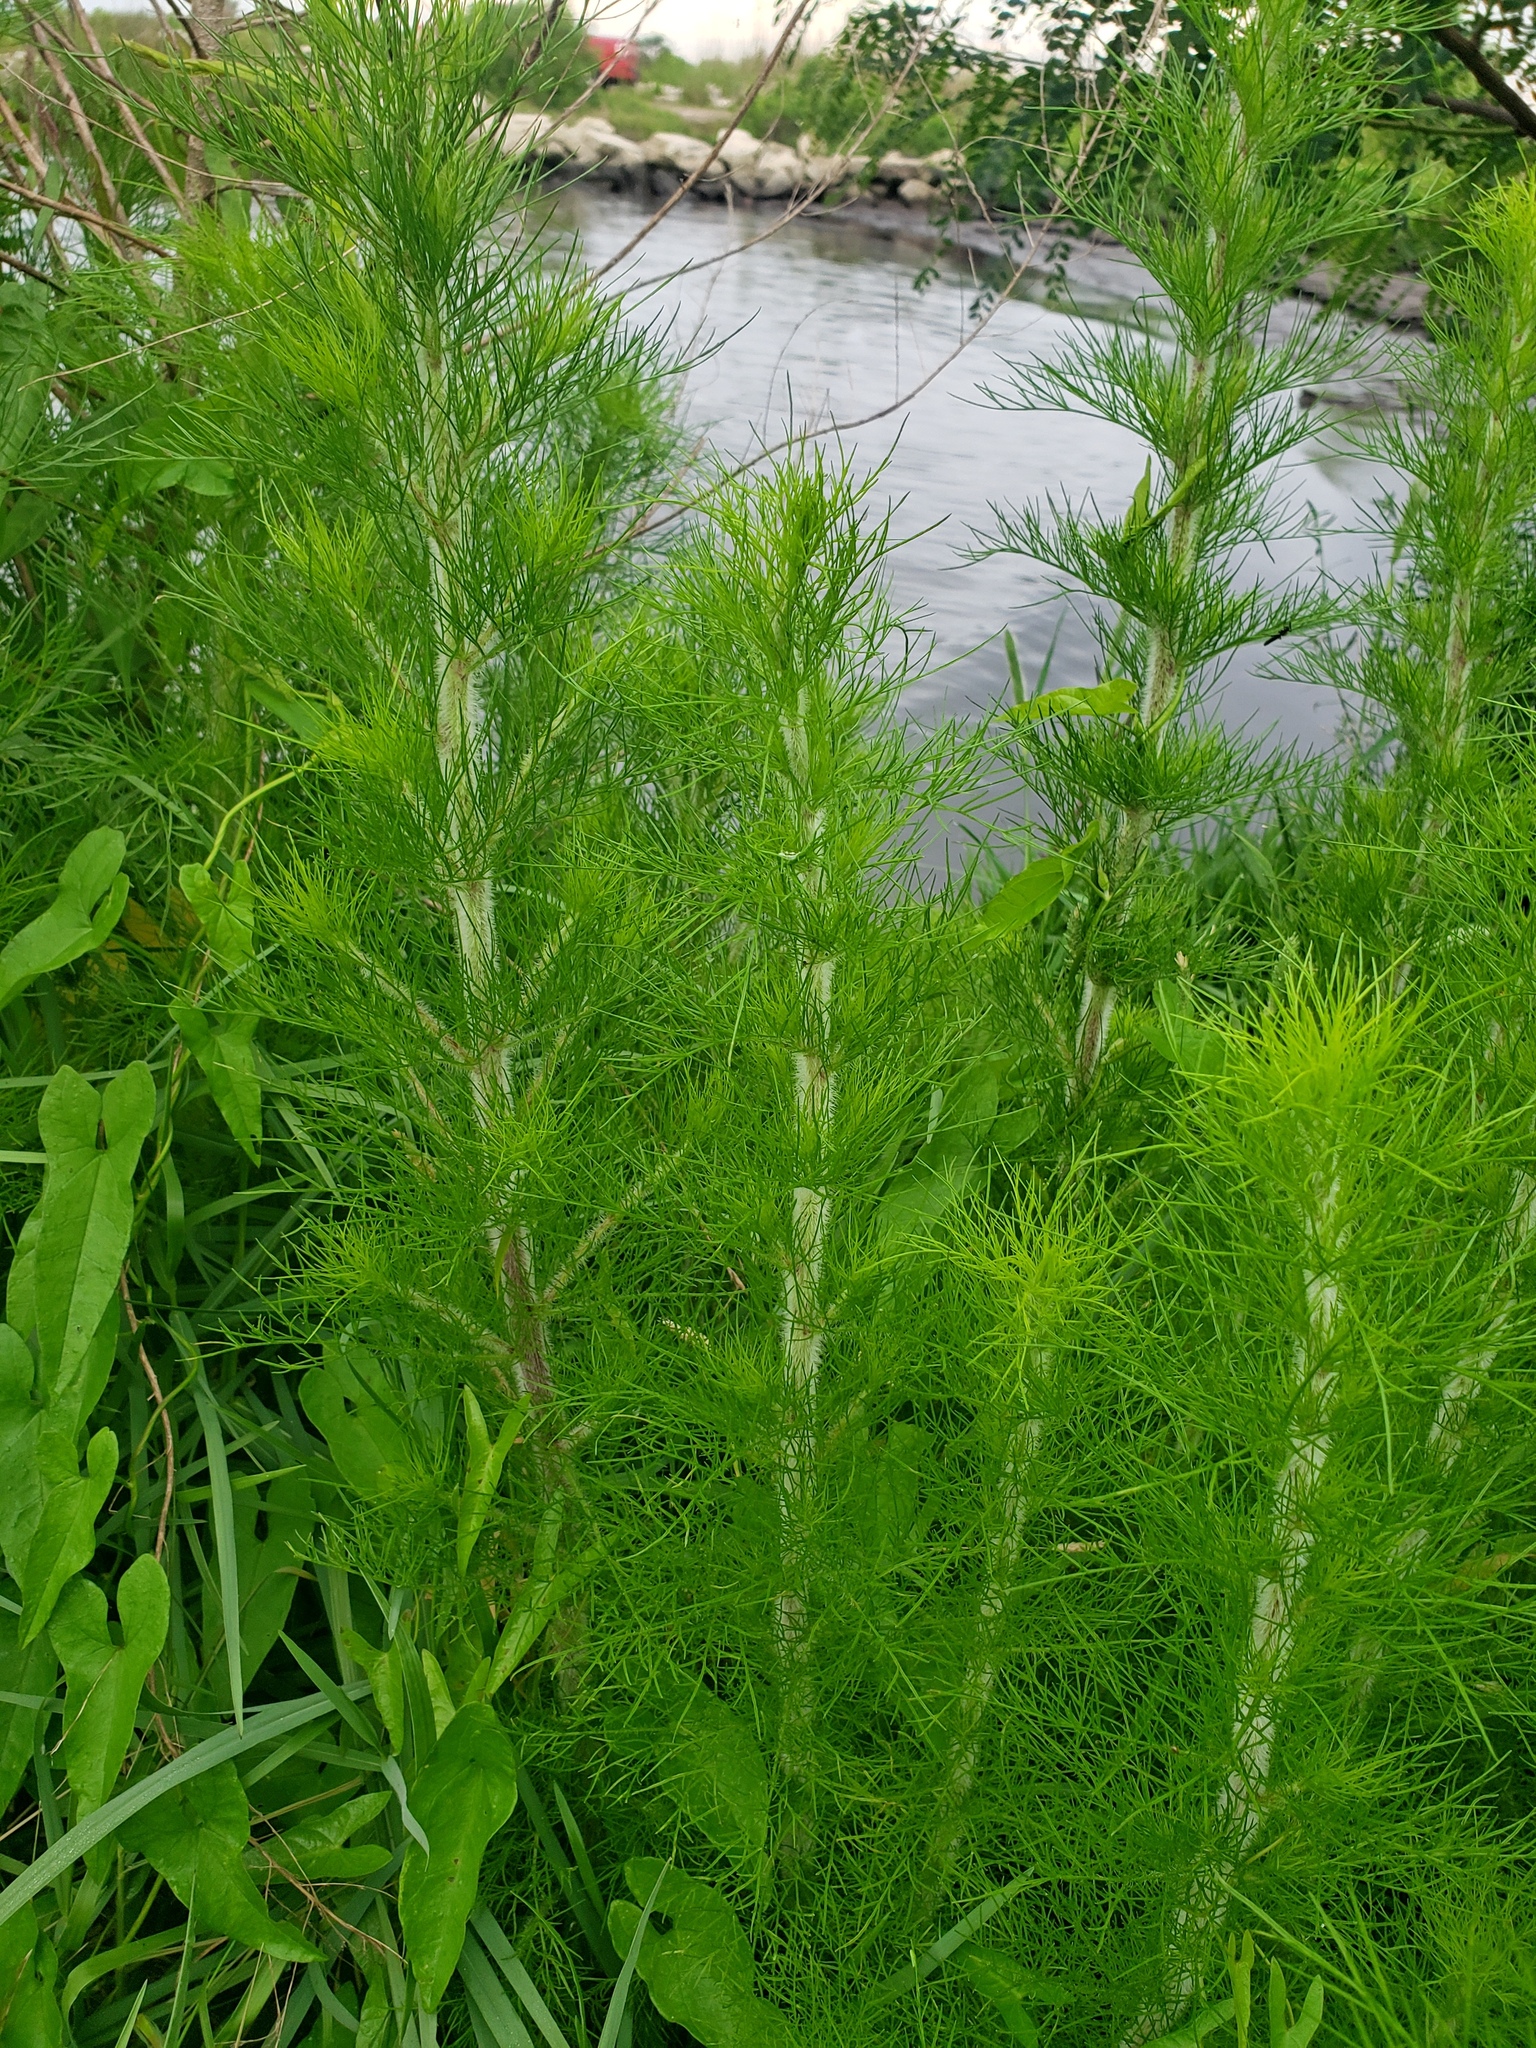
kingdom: Plantae
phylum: Tracheophyta
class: Magnoliopsida
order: Asterales
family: Asteraceae
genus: Eupatorium
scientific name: Eupatorium capillifolium
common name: Dog-fennel
